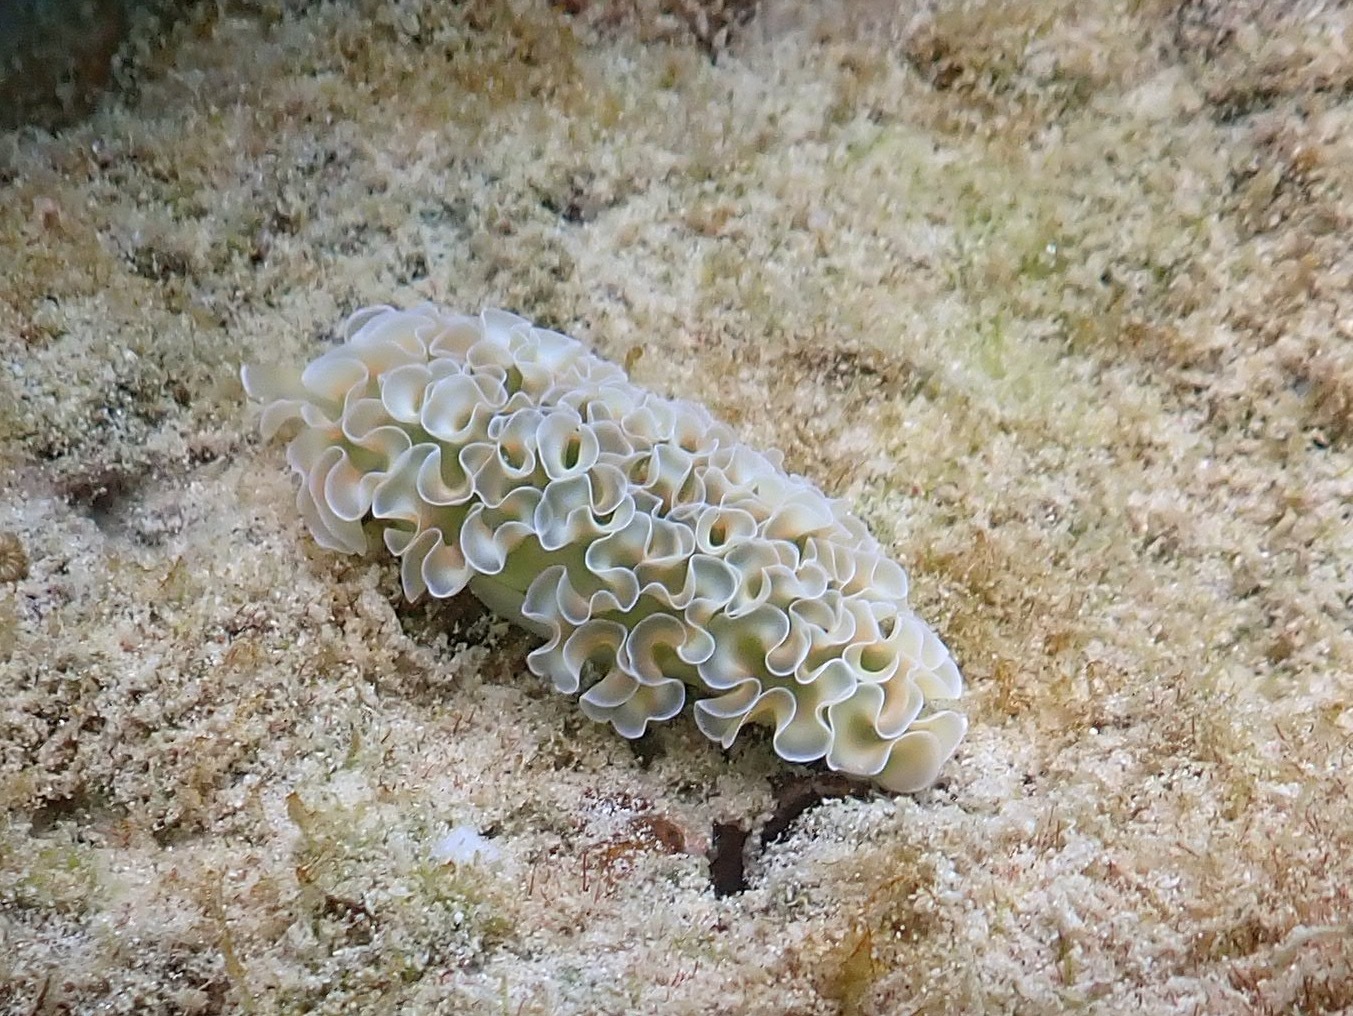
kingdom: Animalia
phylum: Mollusca
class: Gastropoda
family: Plakobranchidae
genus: Elysia
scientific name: Elysia crispata
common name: Lettuce slug
